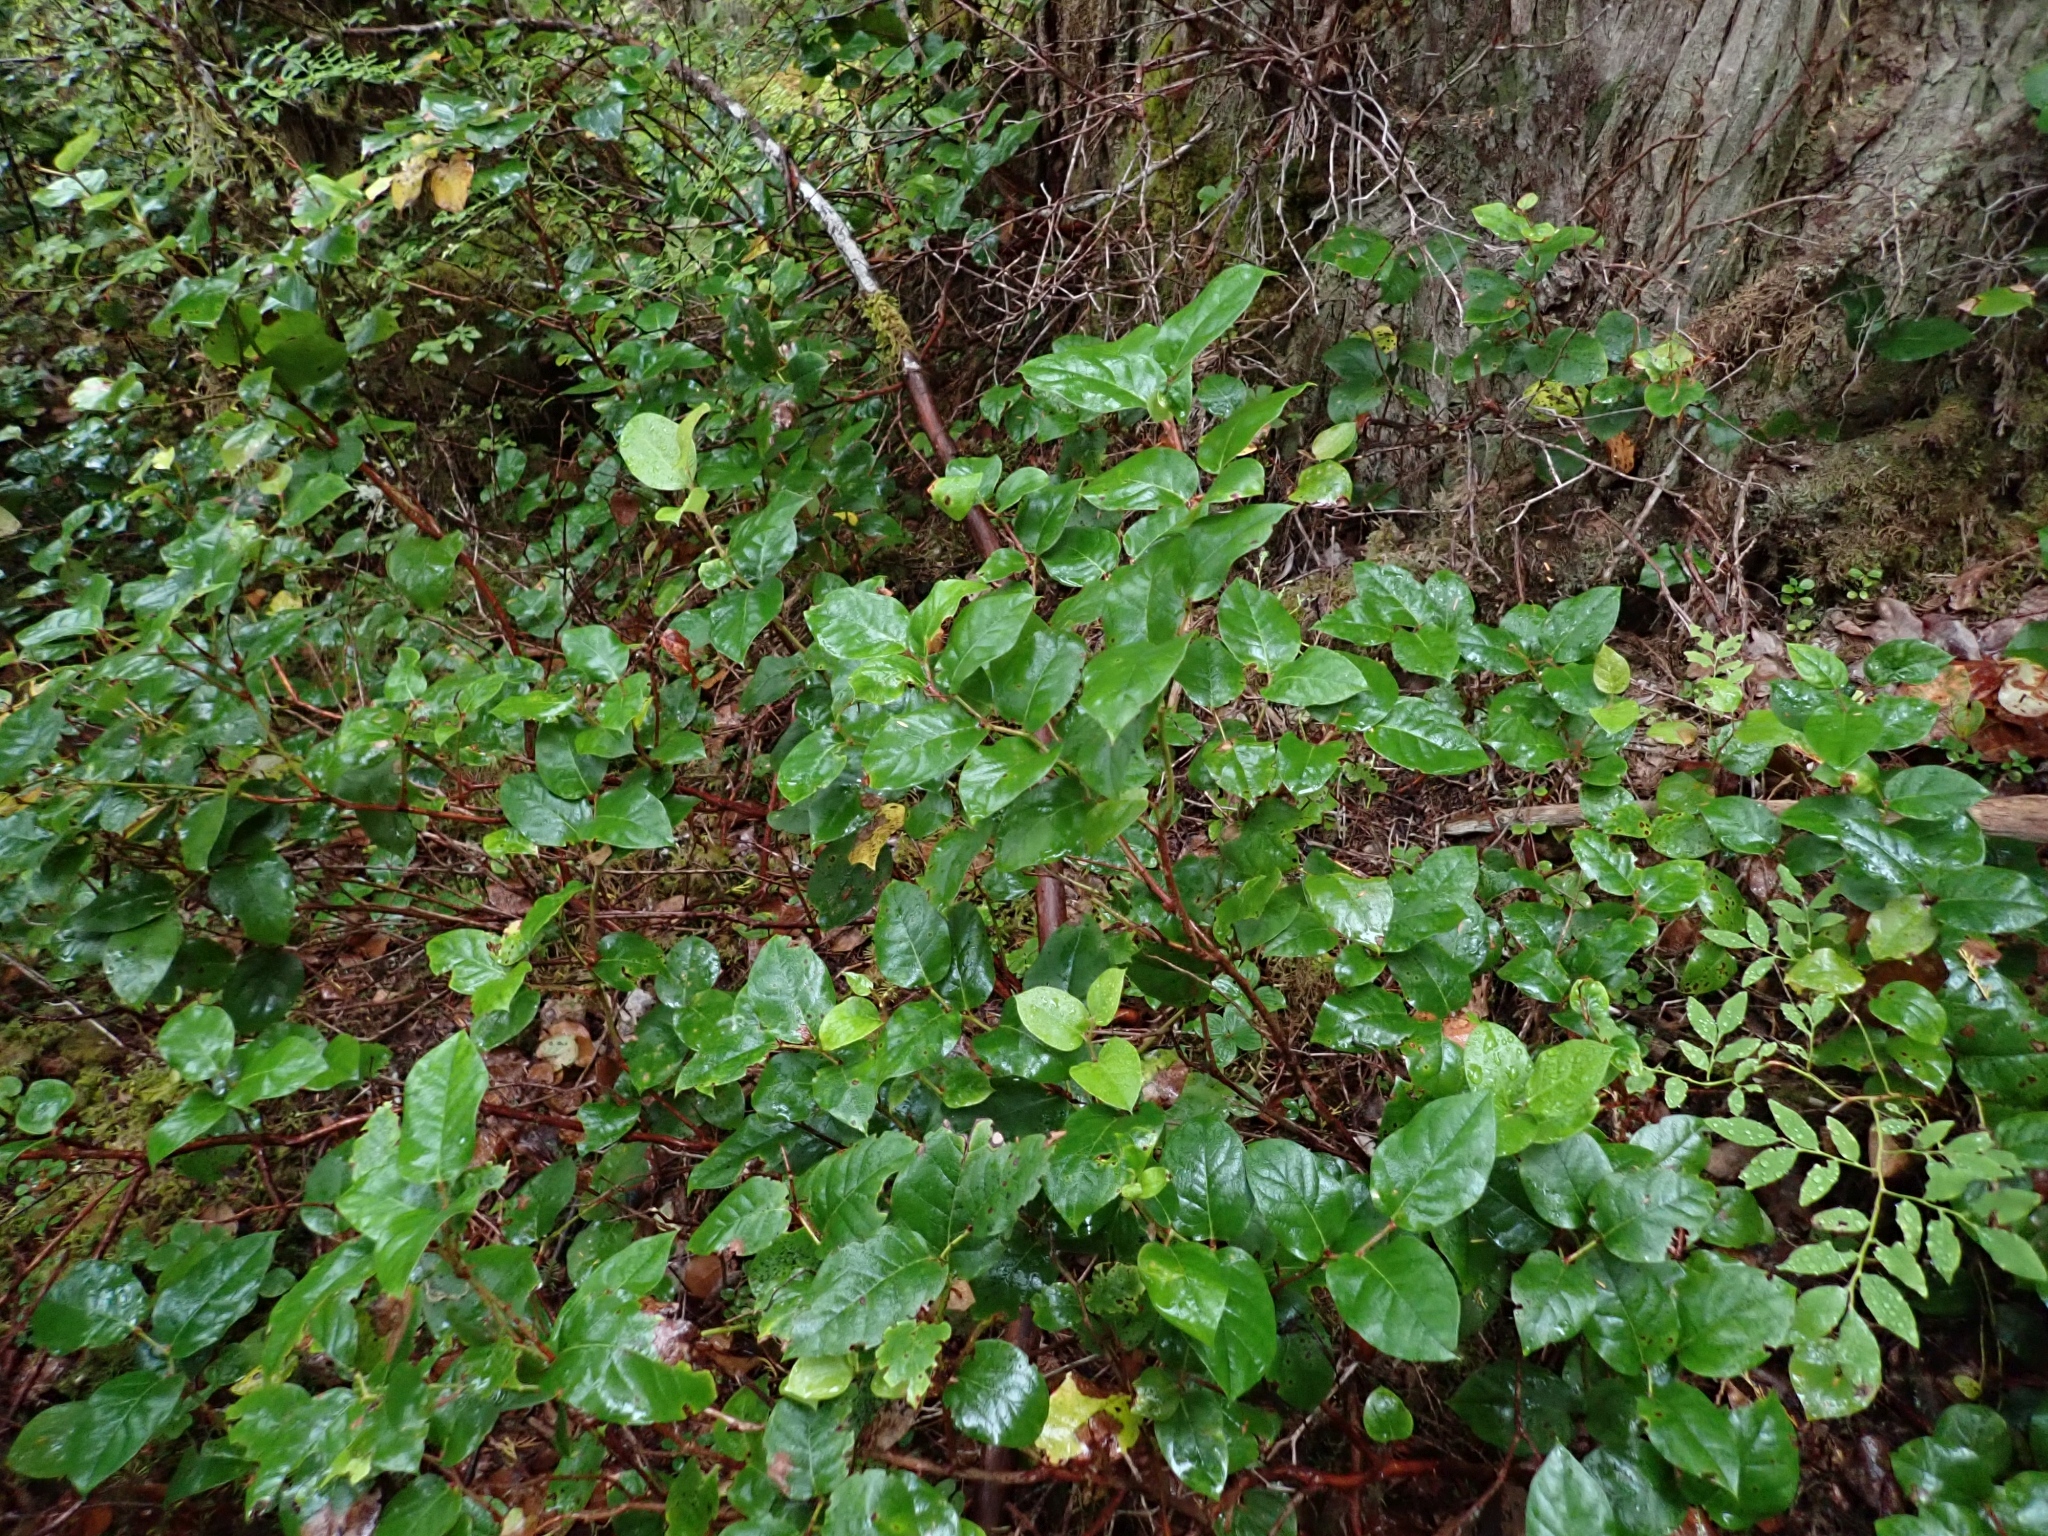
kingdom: Plantae
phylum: Tracheophyta
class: Magnoliopsida
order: Ericales
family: Ericaceae
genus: Gaultheria
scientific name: Gaultheria shallon
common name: Shallon
